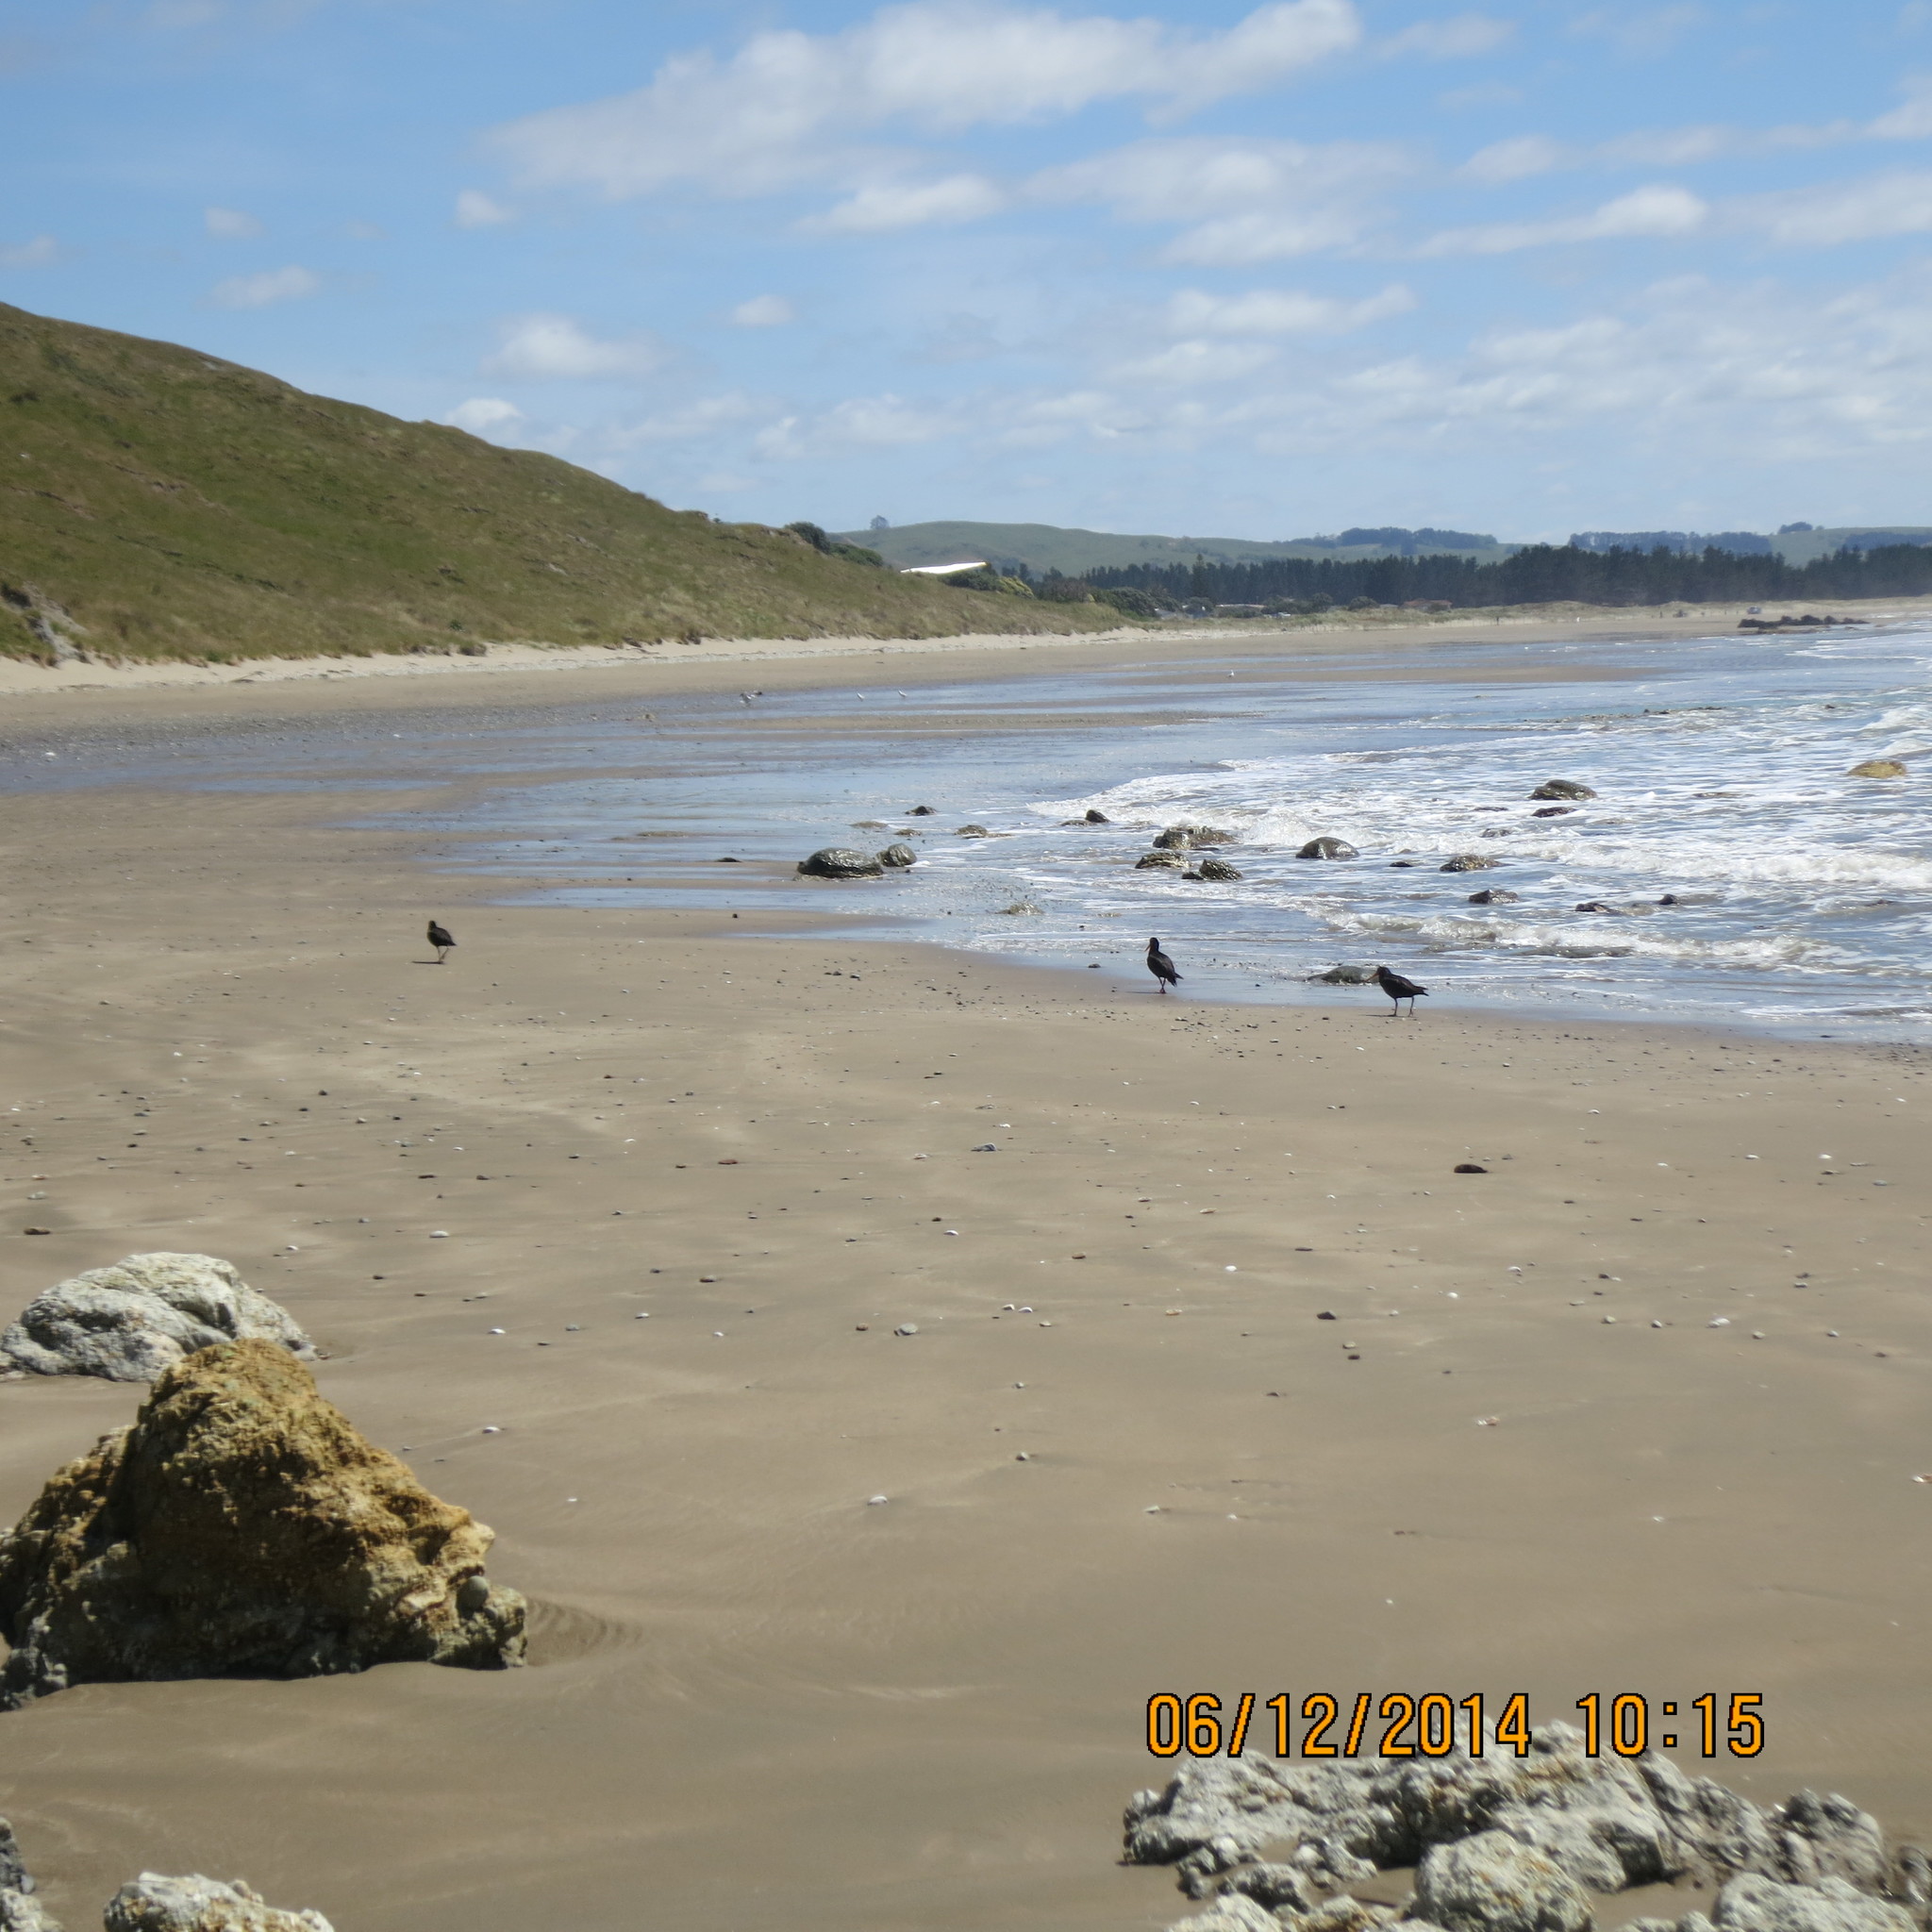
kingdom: Animalia
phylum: Chordata
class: Aves
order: Charadriiformes
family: Haematopodidae
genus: Haematopus
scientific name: Haematopus unicolor
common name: Variable oystercatcher
